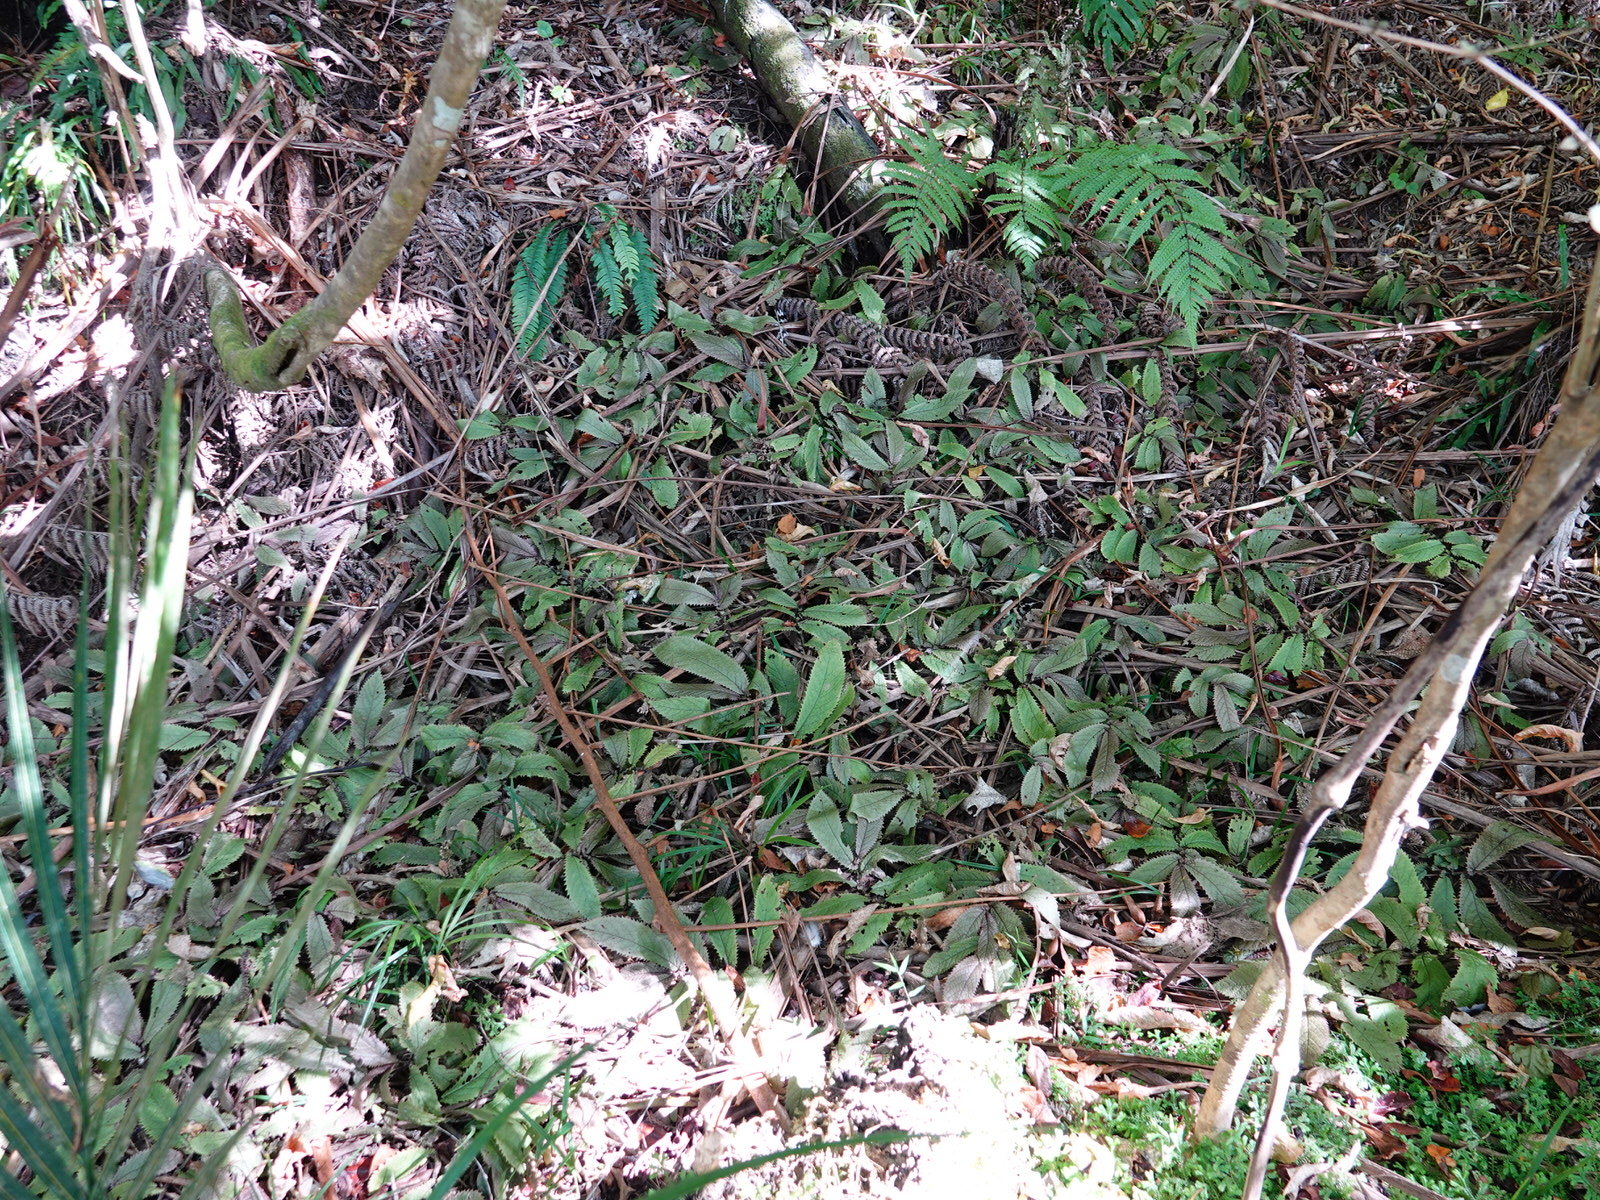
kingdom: Plantae
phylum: Tracheophyta
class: Magnoliopsida
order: Rosales
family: Urticaceae
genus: Elatostema
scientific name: Elatostema rugosum
